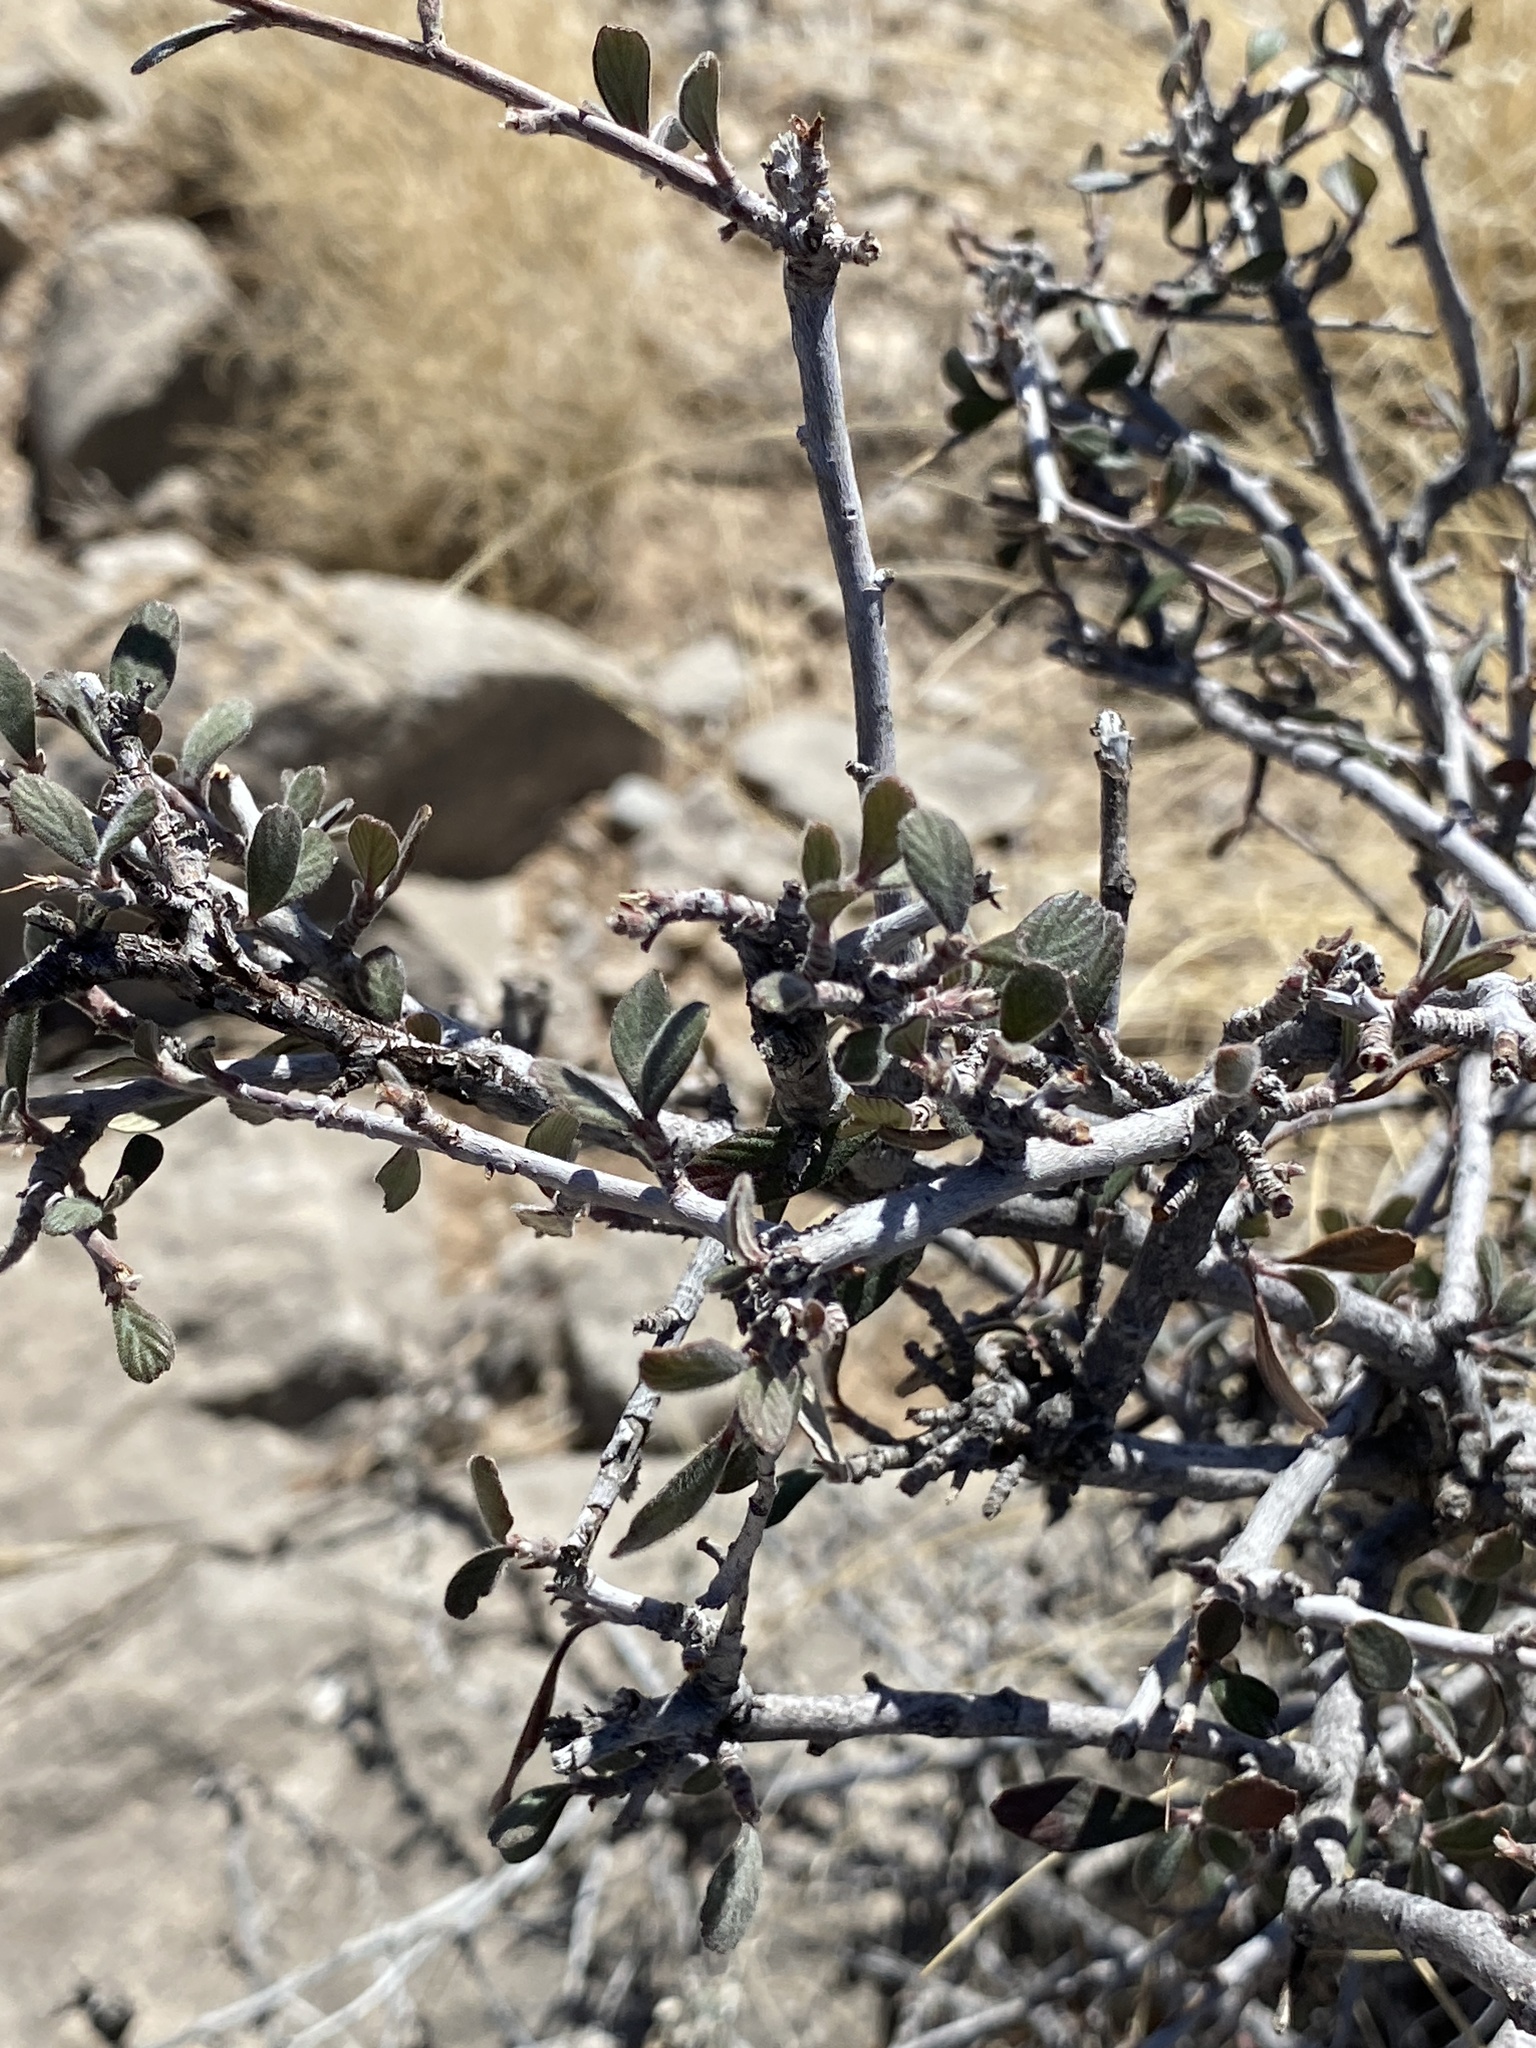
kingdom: Plantae
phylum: Tracheophyta
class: Magnoliopsida
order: Rosales
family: Rosaceae
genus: Cercocarpus
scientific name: Cercocarpus breviflorus
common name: Wright's mountain-mahogany
